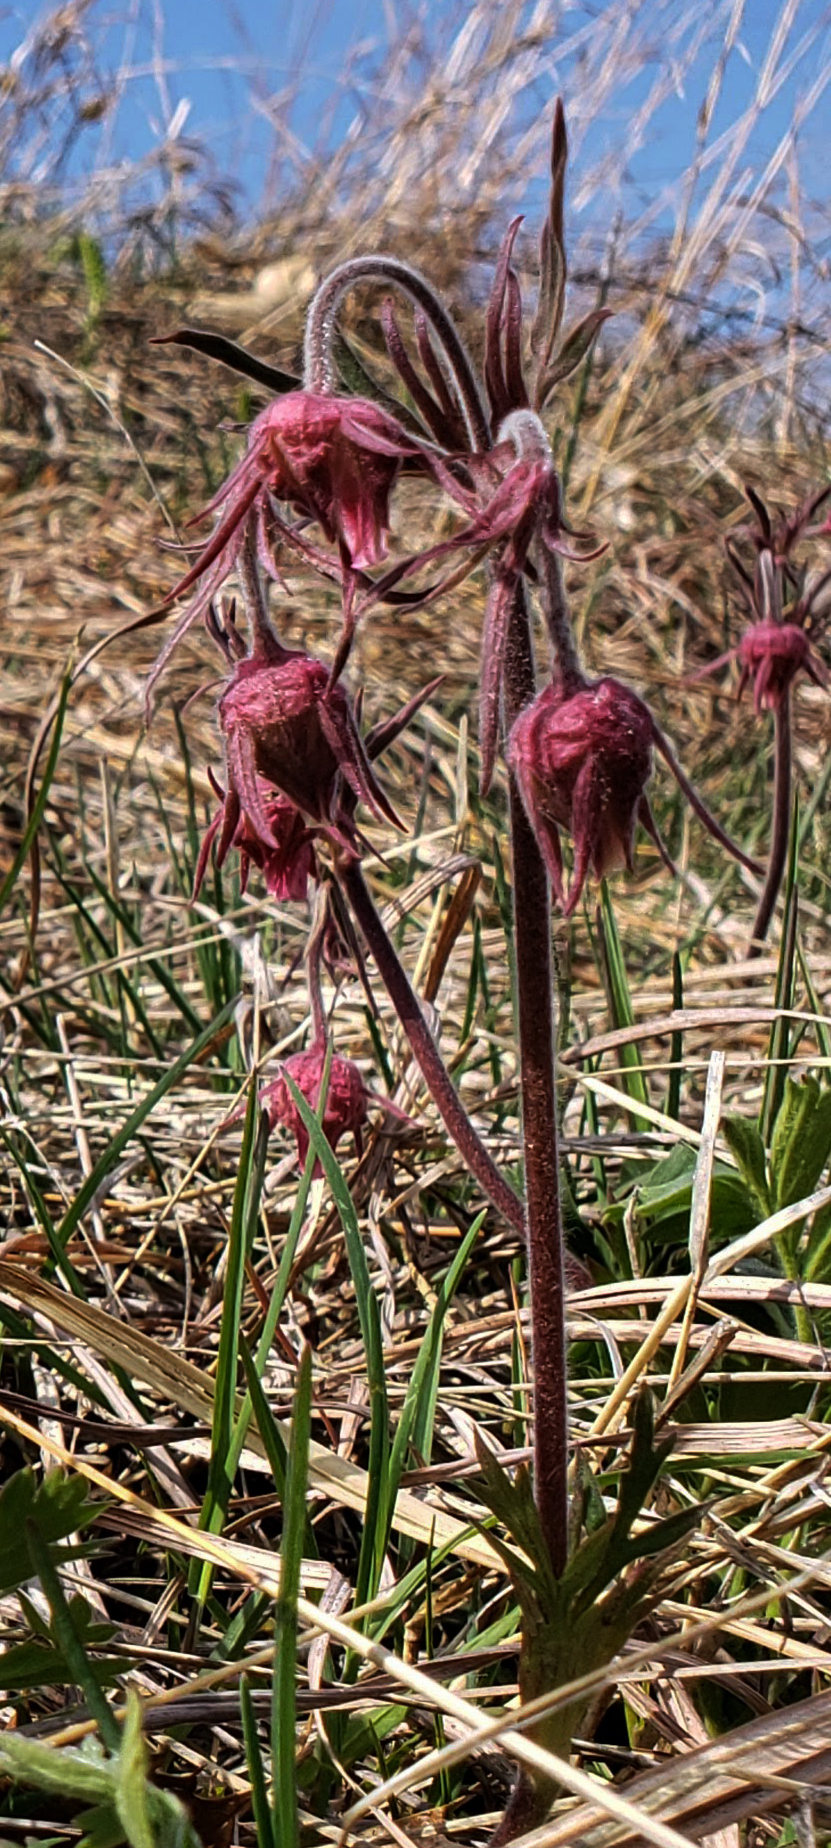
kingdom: Plantae
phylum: Tracheophyta
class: Magnoliopsida
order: Rosales
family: Rosaceae
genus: Geum
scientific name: Geum triflorum
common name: Old man's whiskers
